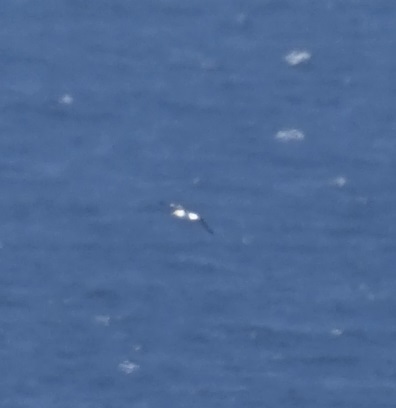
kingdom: Animalia
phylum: Chordata
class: Aves
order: Suliformes
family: Sulidae
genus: Morus
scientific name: Morus serrator
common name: Australasian gannet
